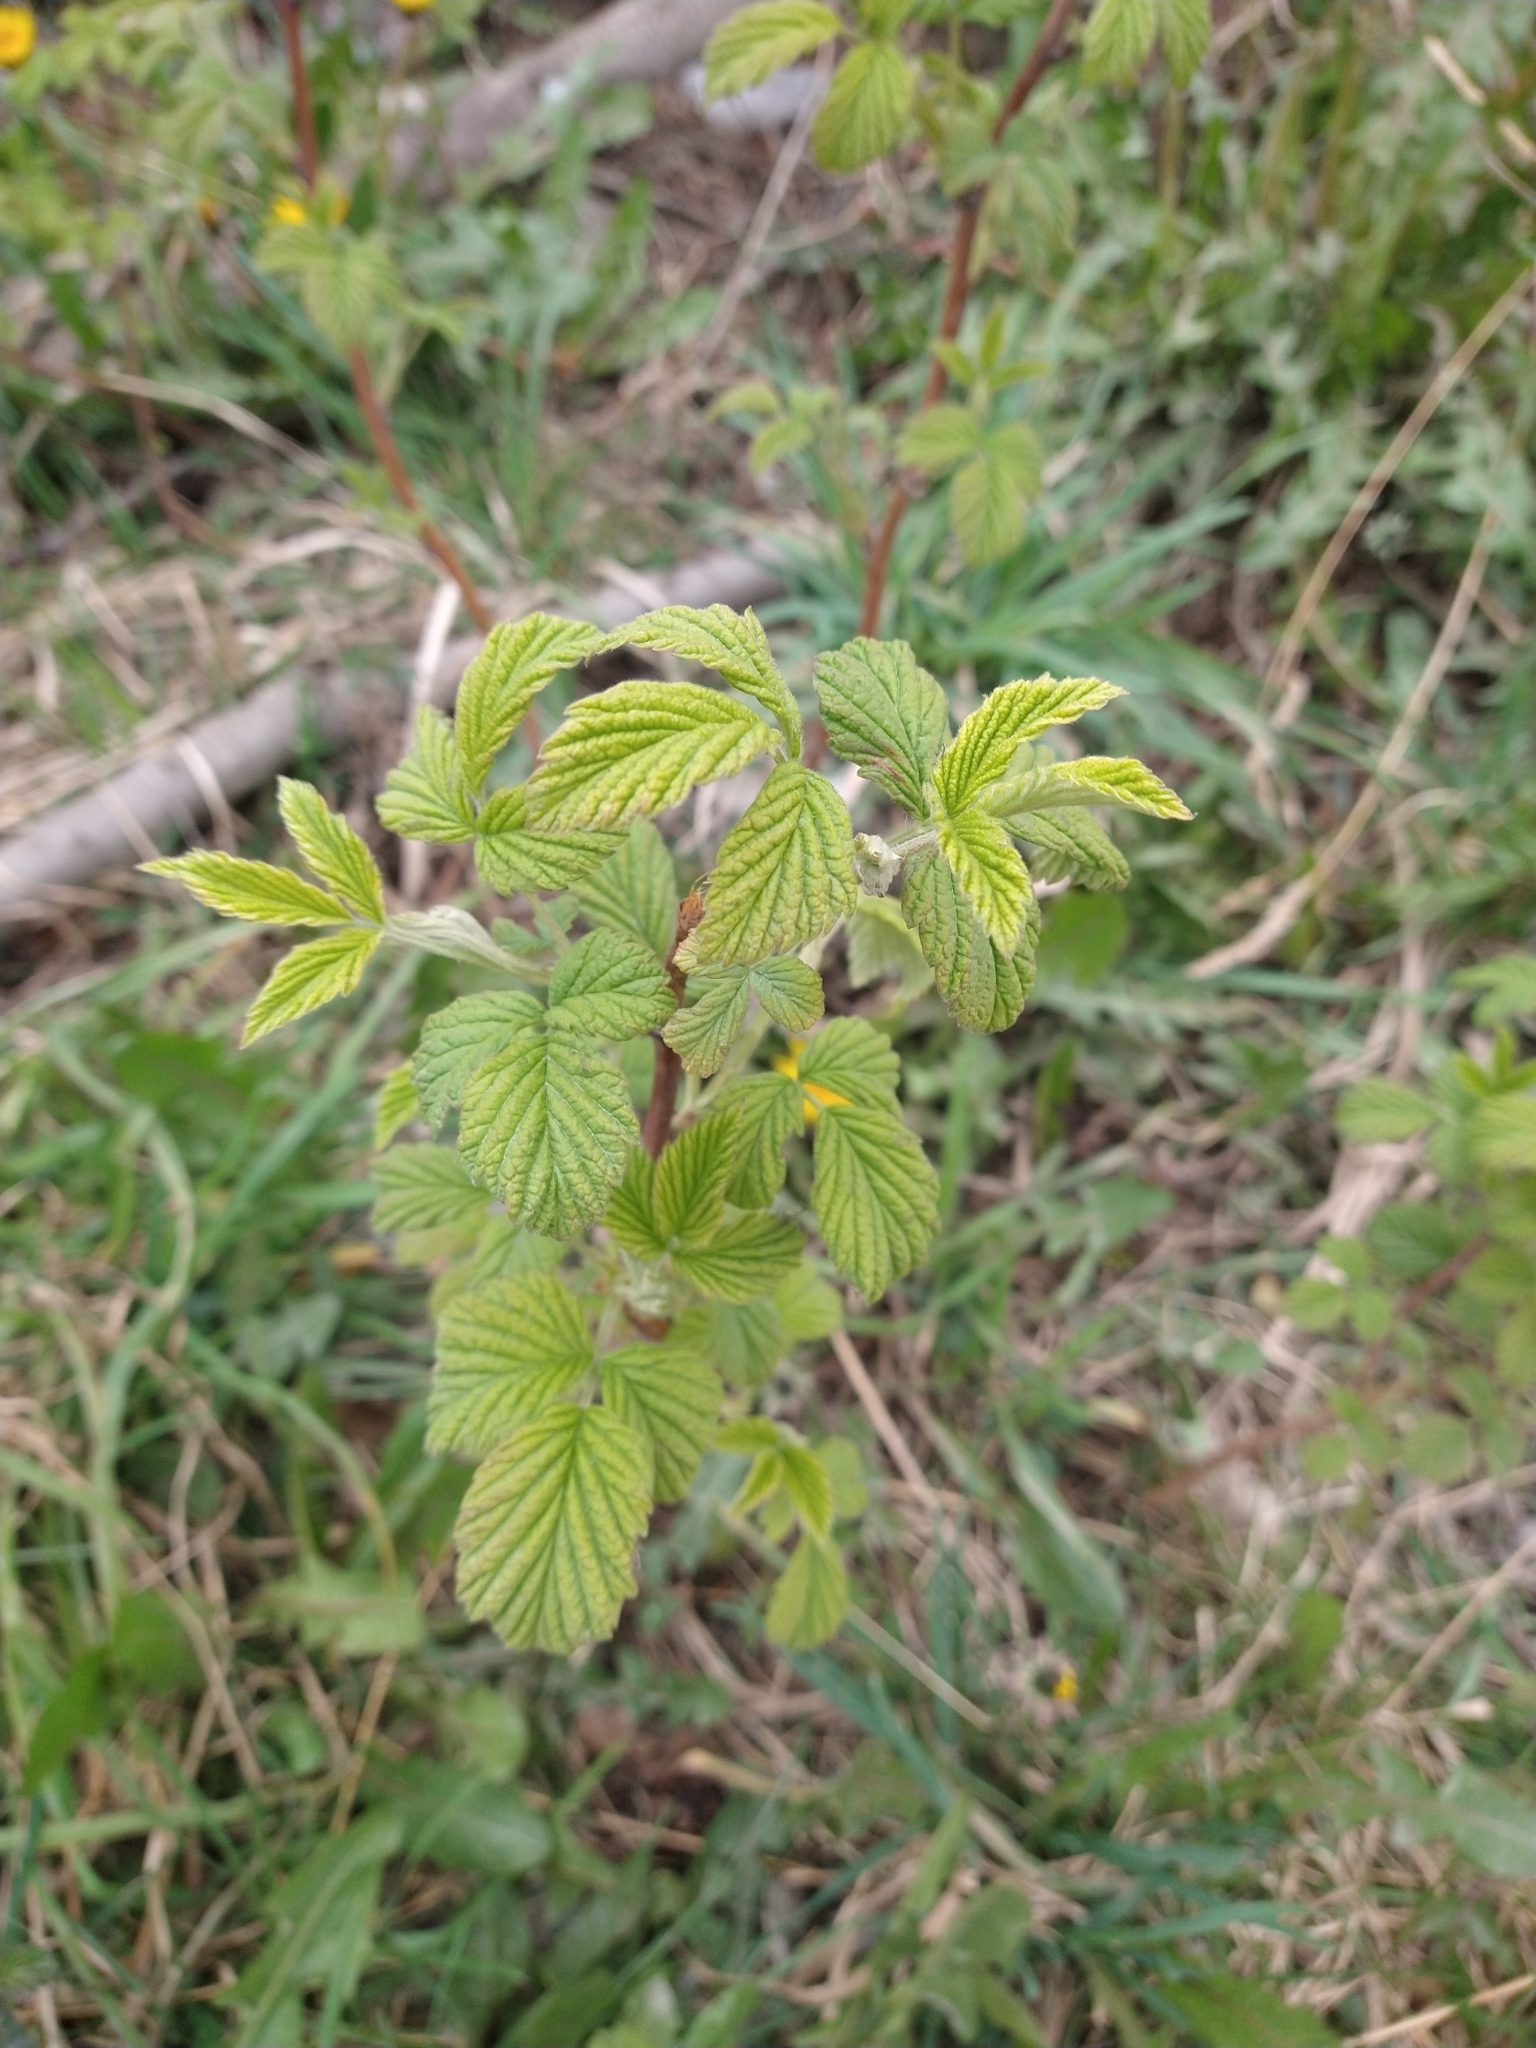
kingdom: Plantae
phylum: Tracheophyta
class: Magnoliopsida
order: Rosales
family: Rosaceae
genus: Rubus
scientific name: Rubus idaeus
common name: Raspberry
